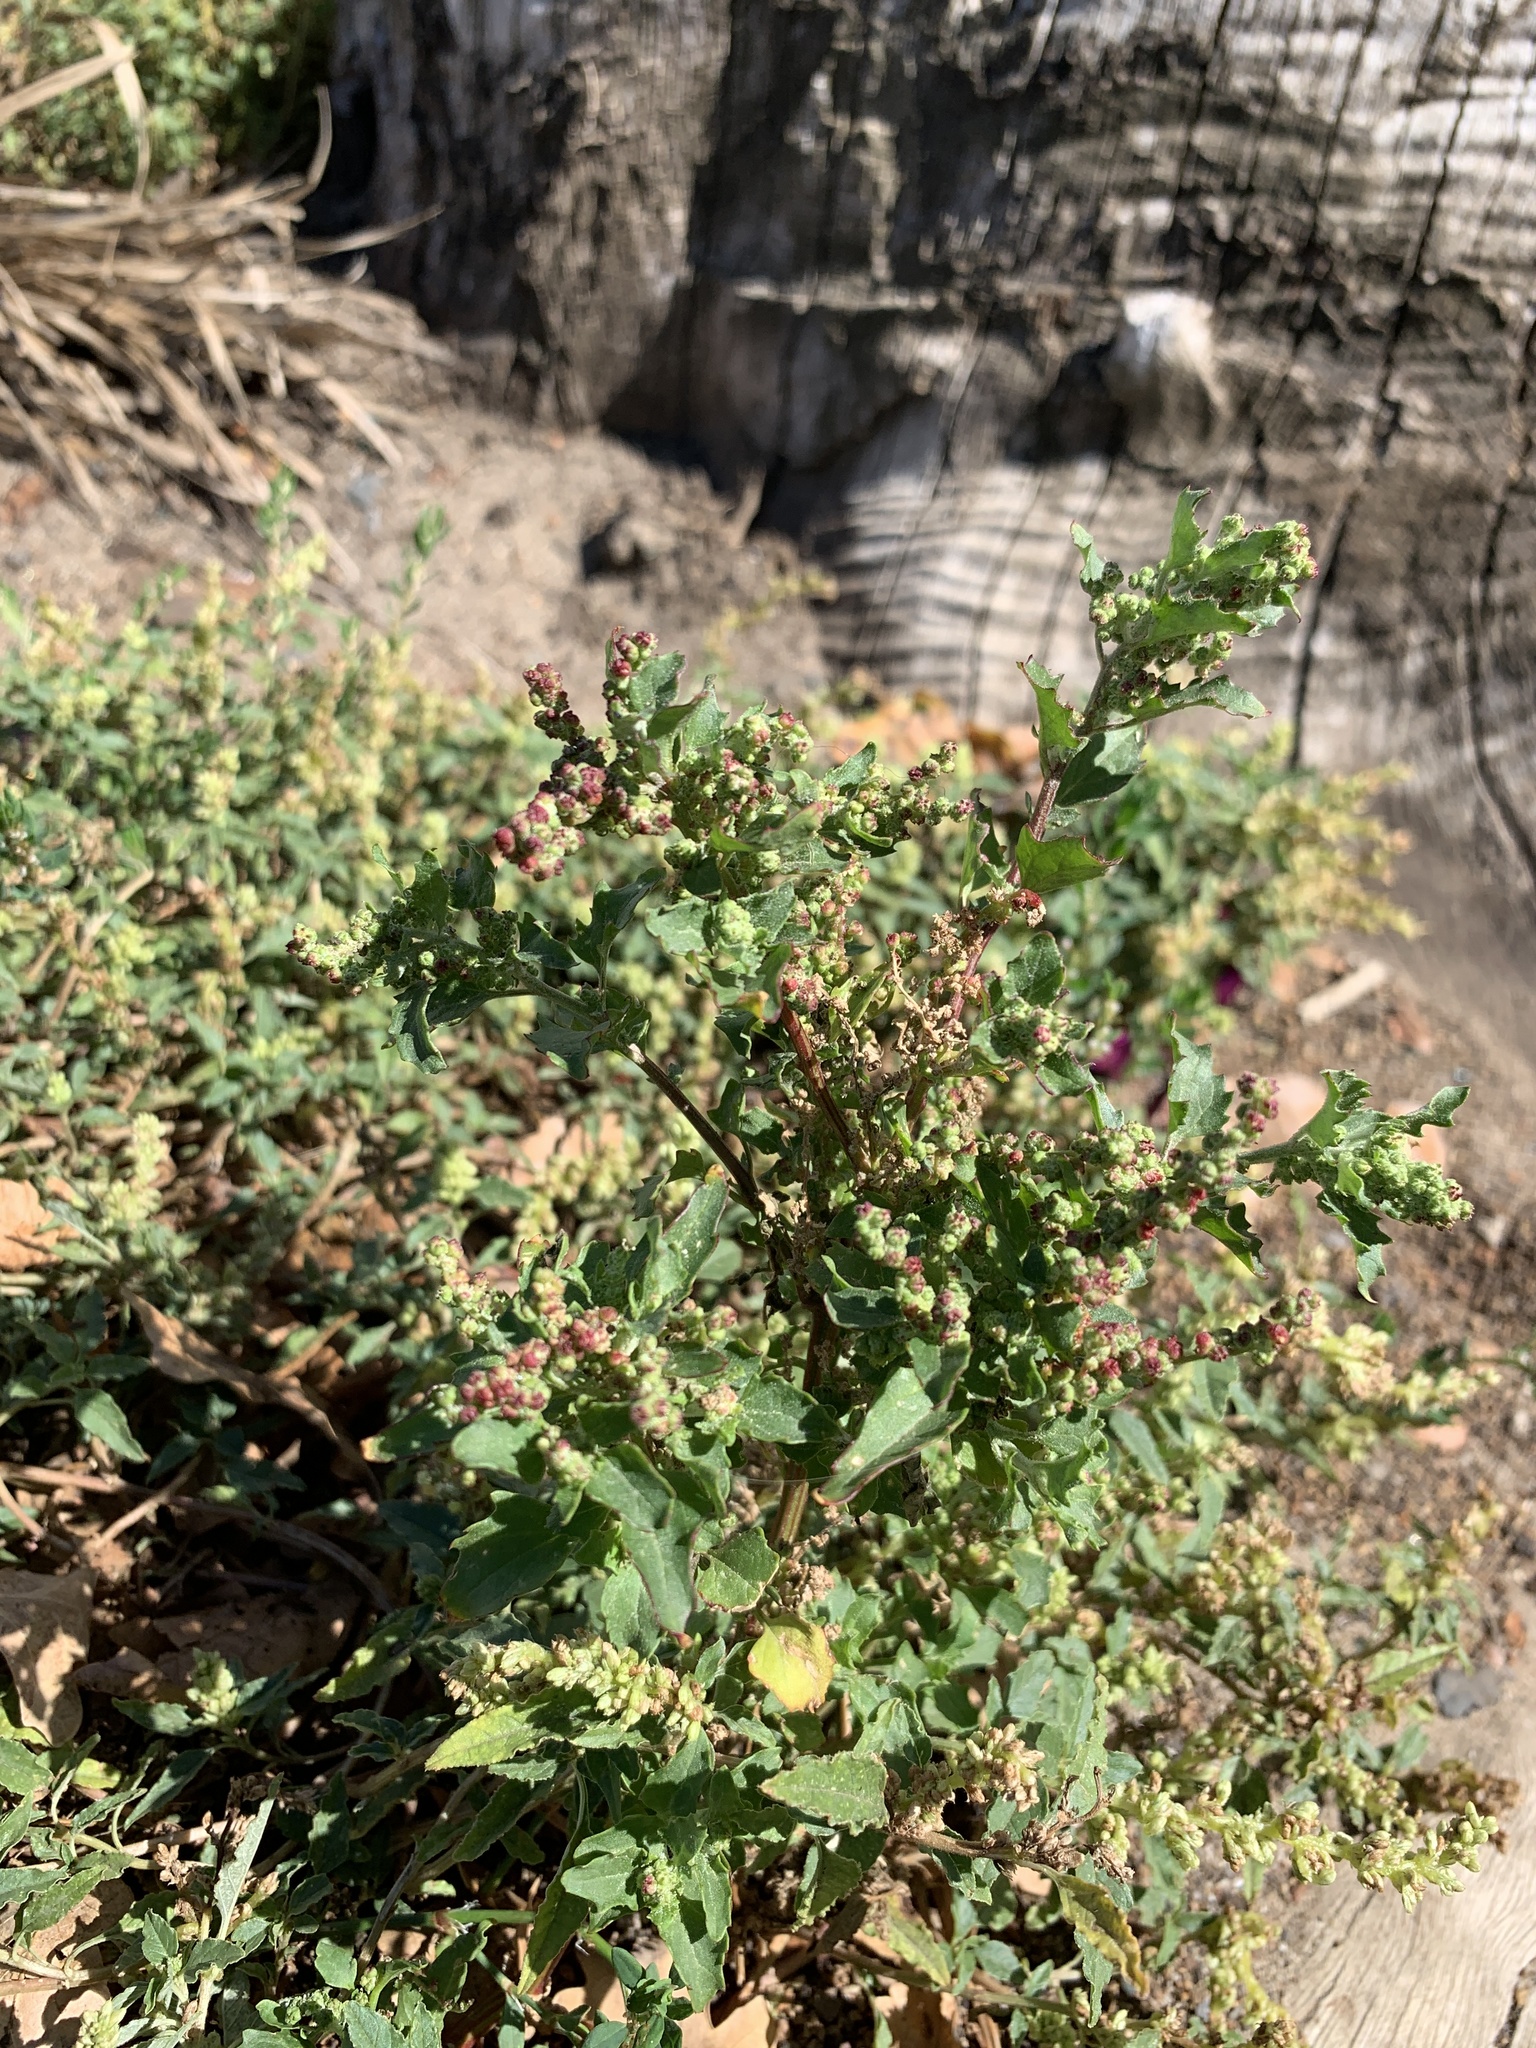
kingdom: Plantae
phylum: Tracheophyta
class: Magnoliopsida
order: Caryophyllales
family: Amaranthaceae
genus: Chenopodiastrum
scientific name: Chenopodiastrum murale
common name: Sowbane
